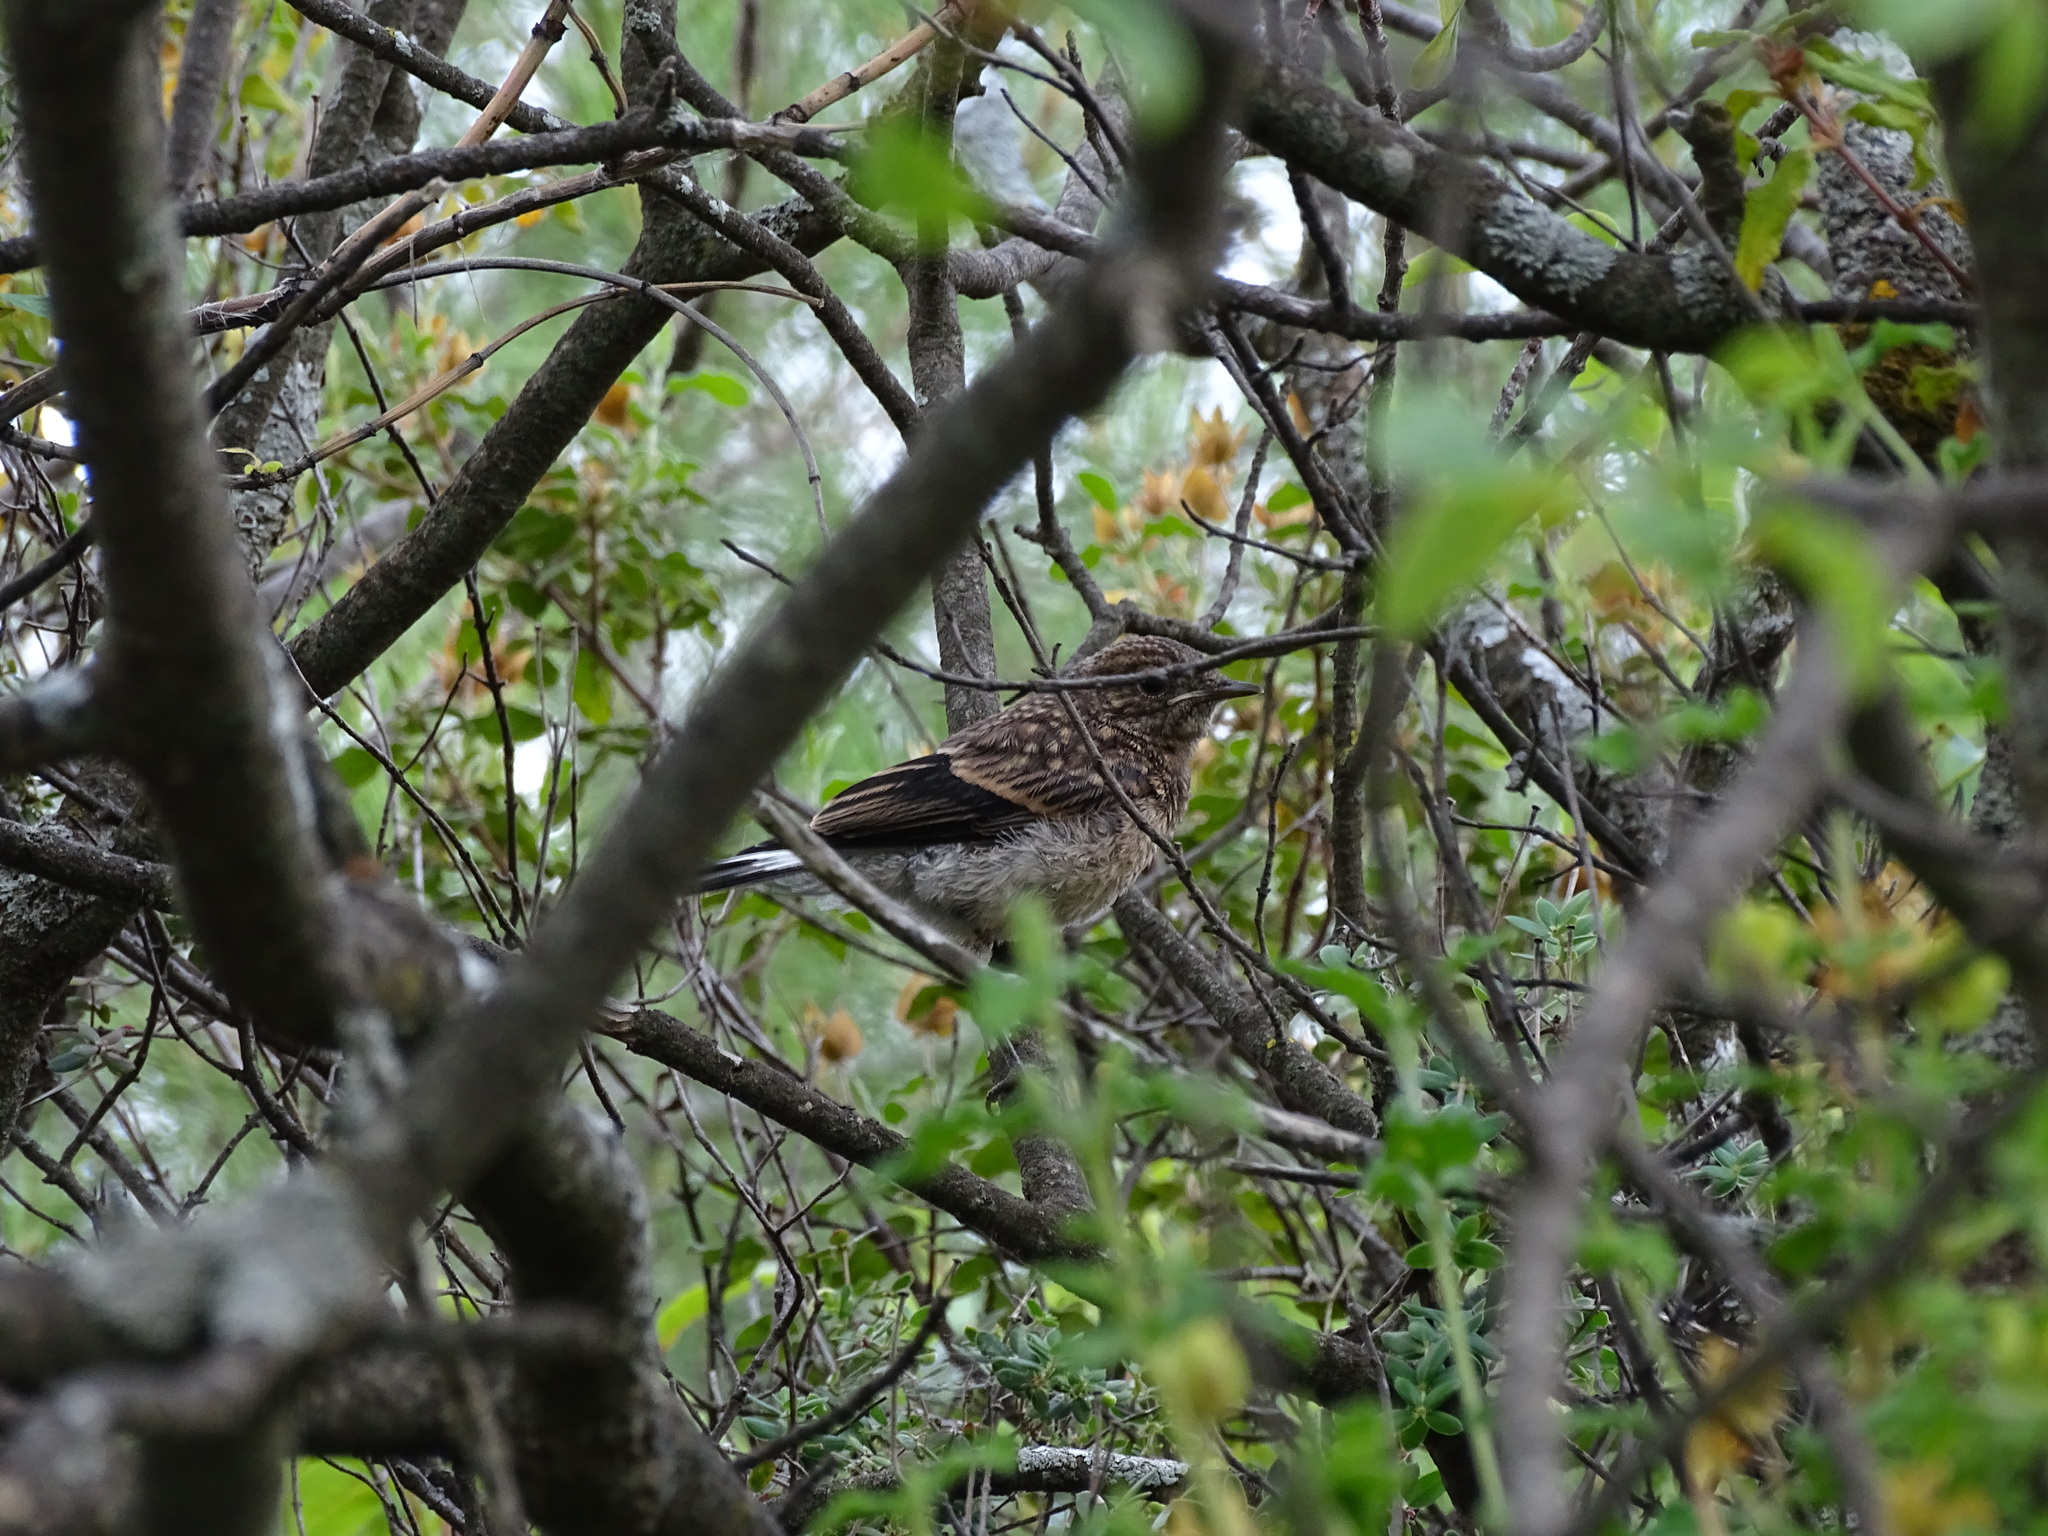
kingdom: Animalia
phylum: Chordata
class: Aves
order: Passeriformes
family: Muscicapidae
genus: Oenanthe
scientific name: Oenanthe cypriaca
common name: Cyprus wheatear
